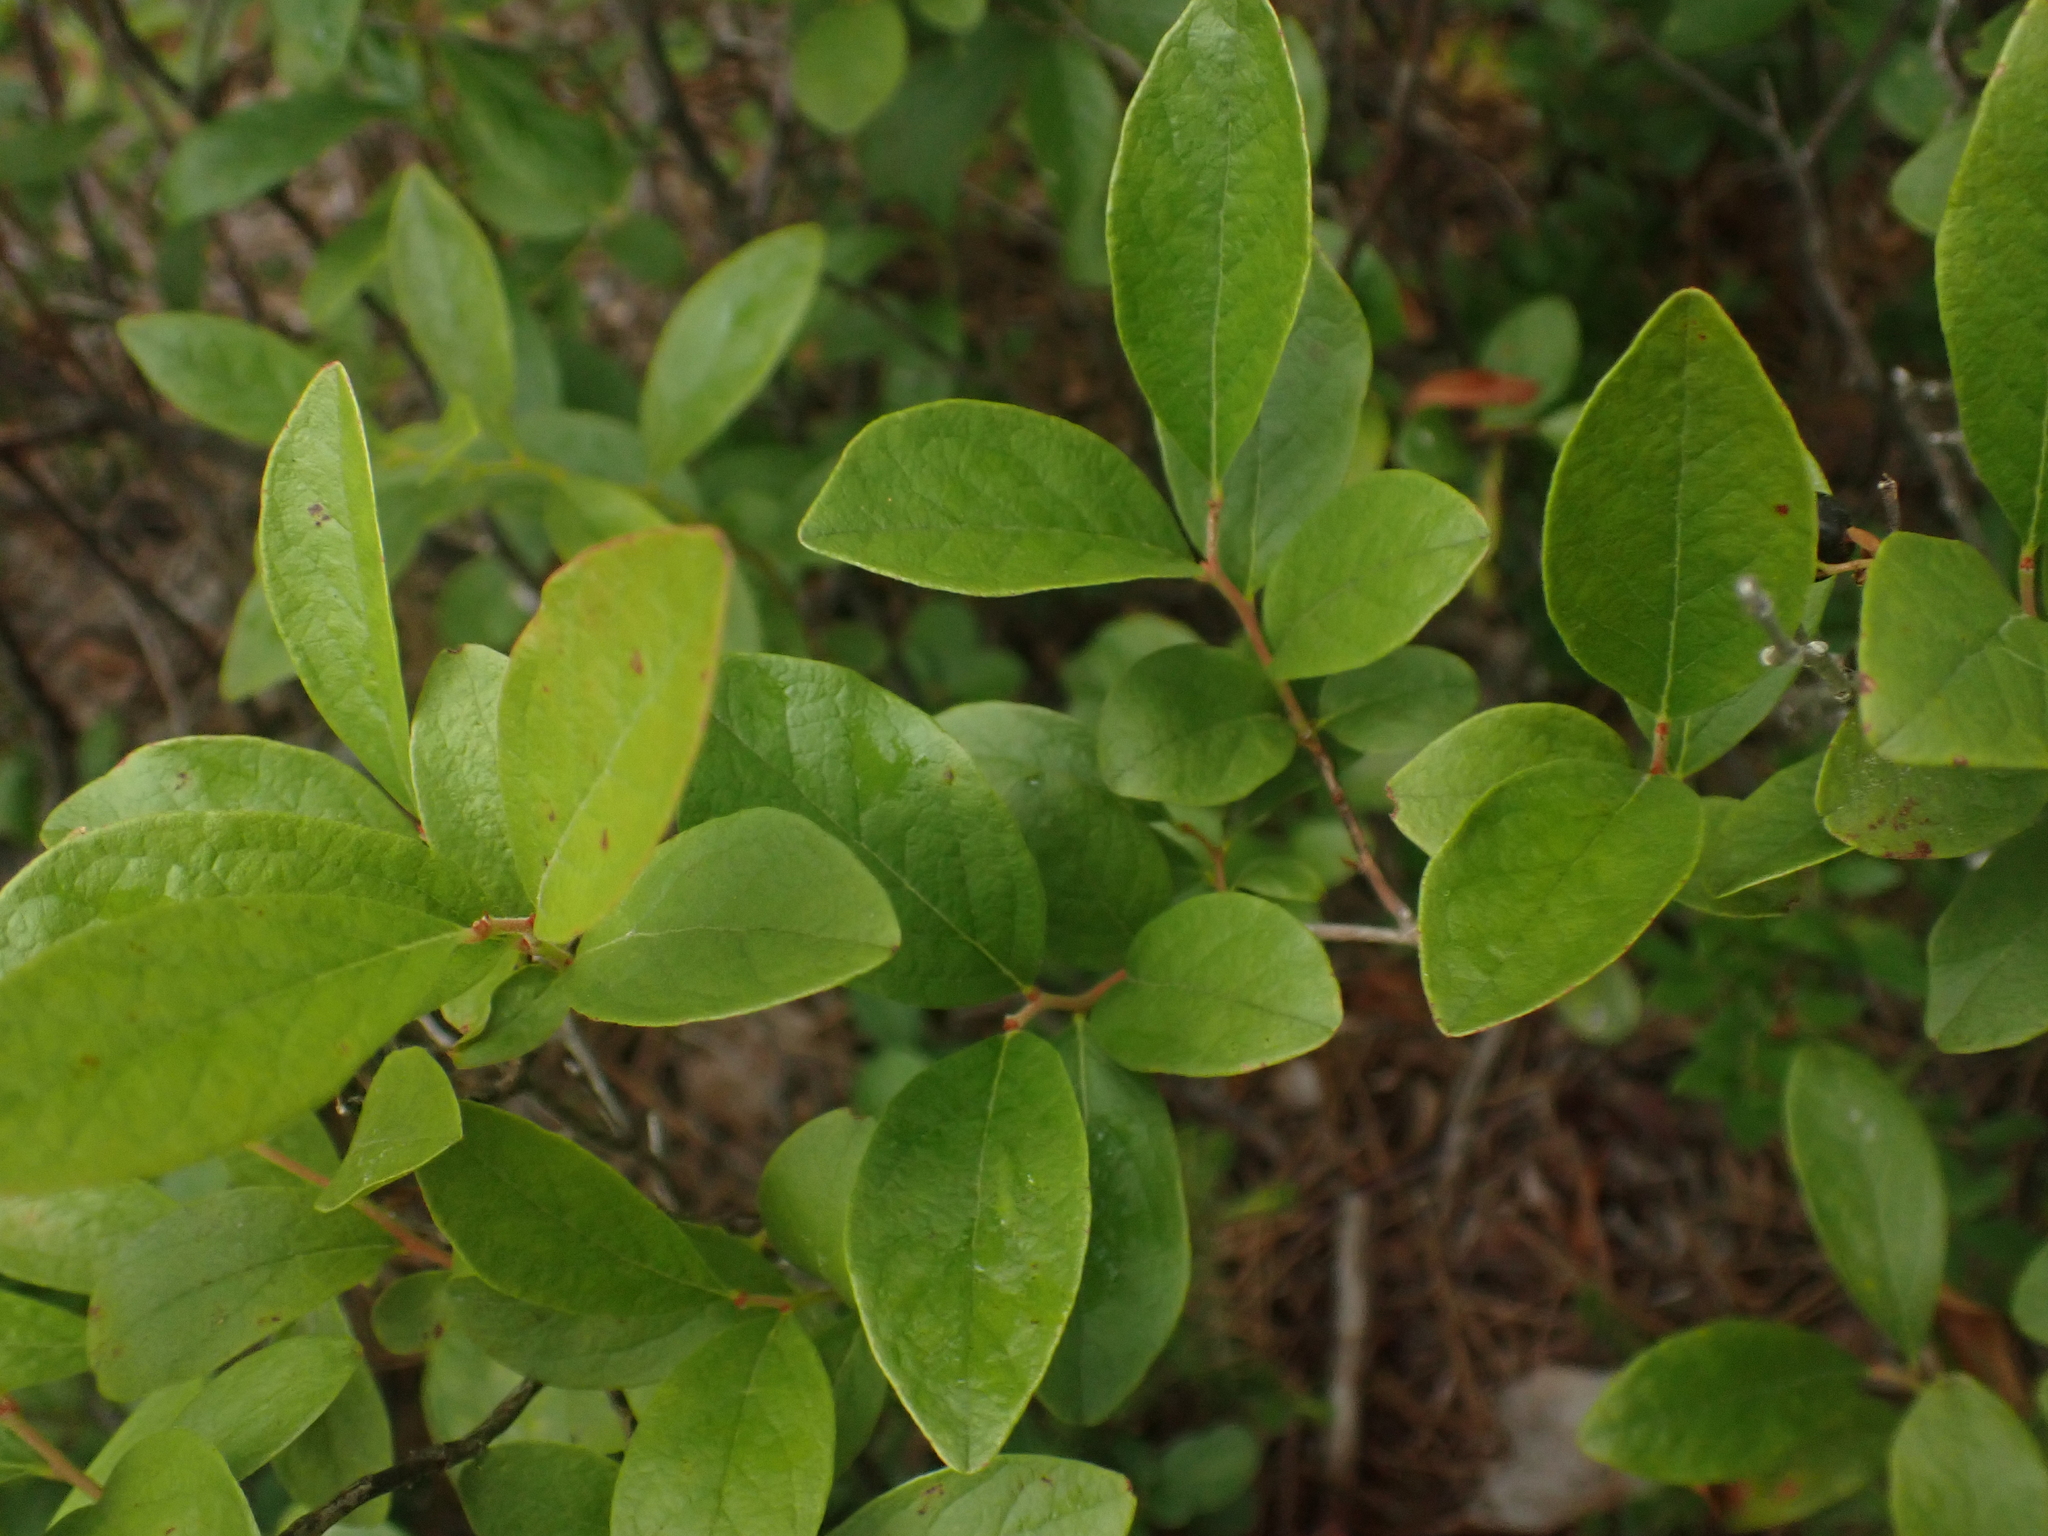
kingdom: Plantae
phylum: Tracheophyta
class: Magnoliopsida
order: Ericales
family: Ericaceae
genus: Gaylussacia
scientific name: Gaylussacia baccata
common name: Black huckleberry
